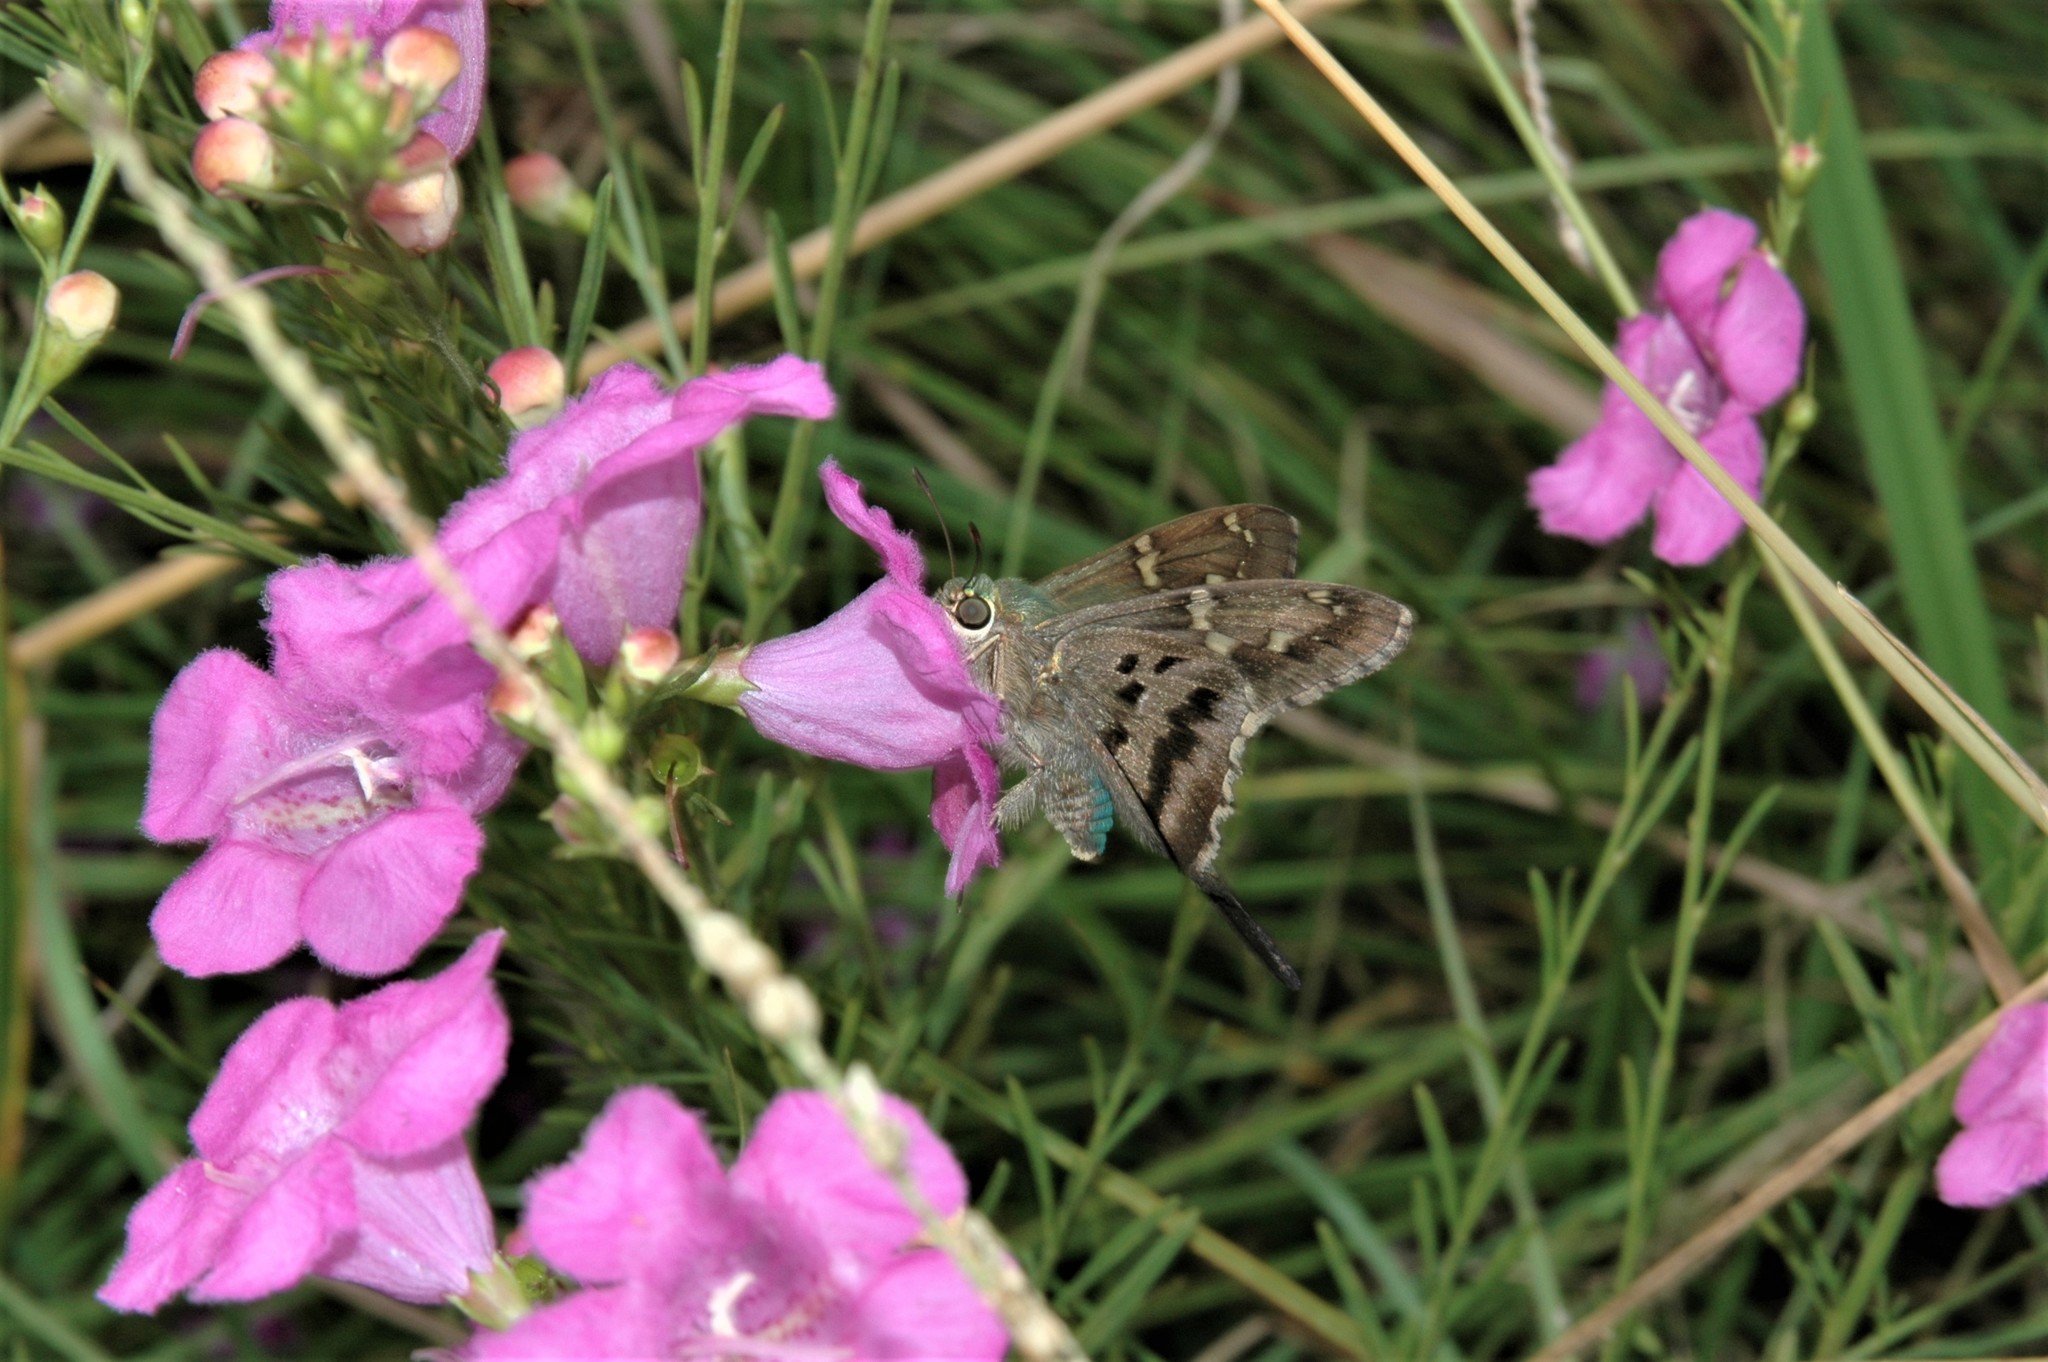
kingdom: Animalia
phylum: Arthropoda
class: Insecta
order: Lepidoptera
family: Hesperiidae
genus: Urbanus
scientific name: Urbanus proteus
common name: Long-tailed skipper
